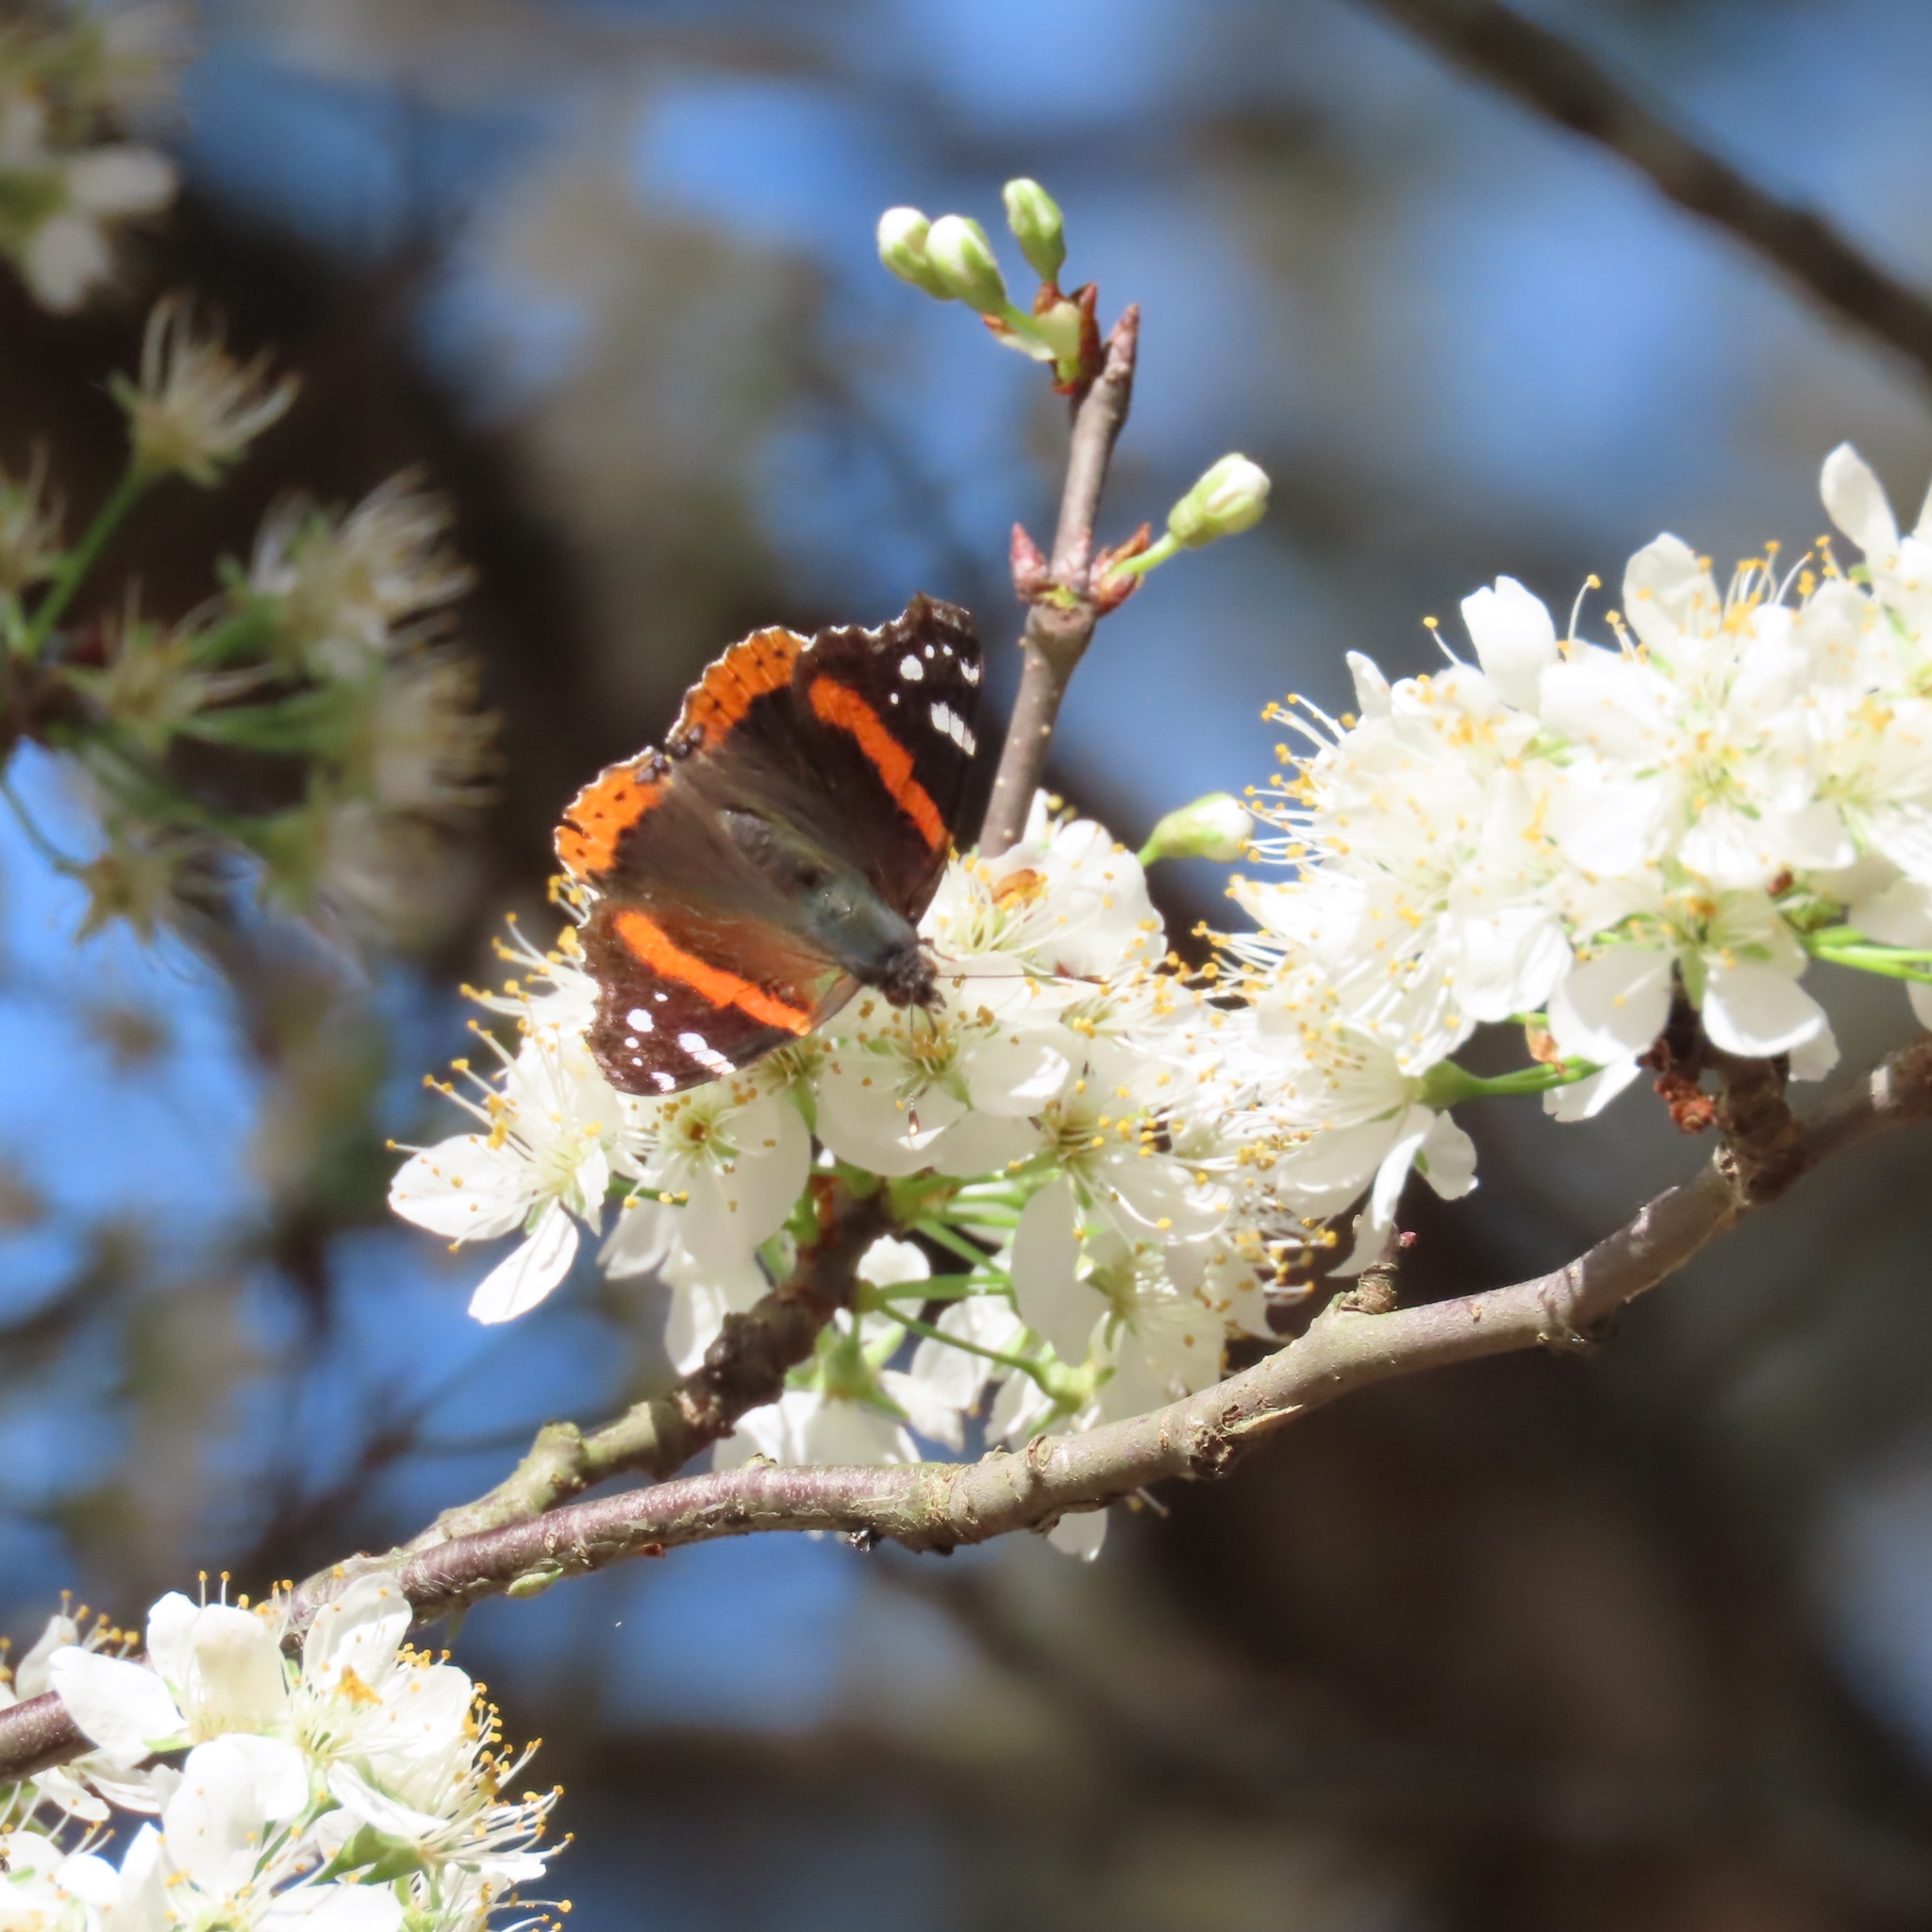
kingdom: Animalia
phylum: Arthropoda
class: Insecta
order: Lepidoptera
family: Nymphalidae
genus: Vanessa
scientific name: Vanessa atalanta
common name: Red admiral
